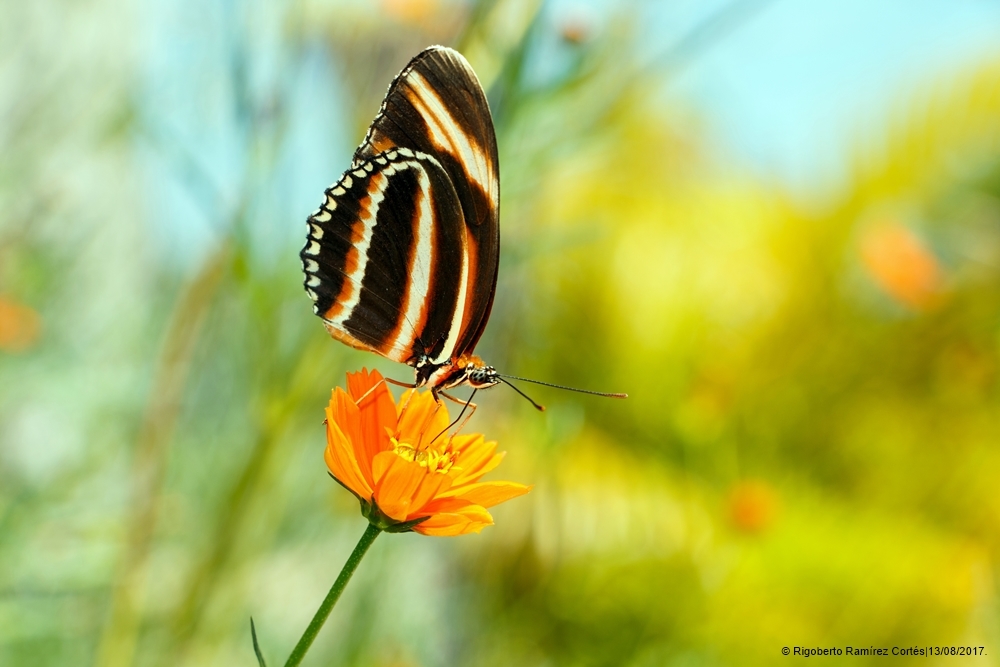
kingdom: Animalia
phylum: Arthropoda
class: Insecta
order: Lepidoptera
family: Nymphalidae
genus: Dryadula
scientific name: Dryadula phaetusa
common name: Banded orange heliconian
